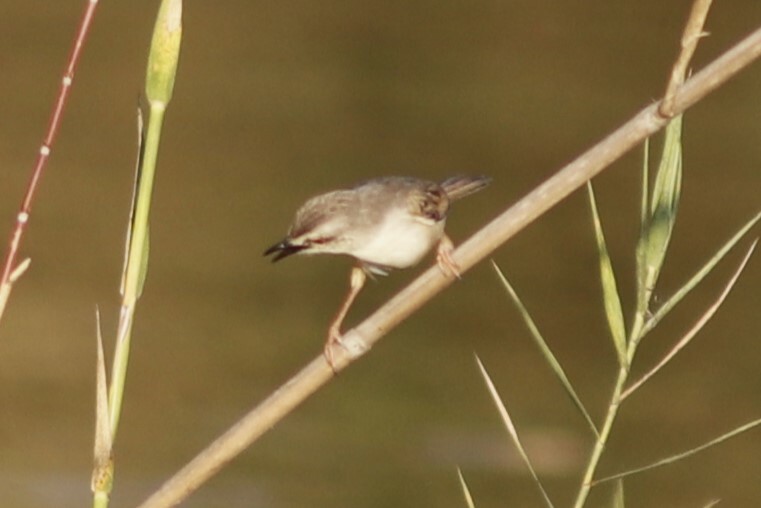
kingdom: Animalia
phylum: Chordata
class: Aves
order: Passeriformes
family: Cisticolidae
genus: Prinia
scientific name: Prinia subflava
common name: Tawny-flanked prinia
